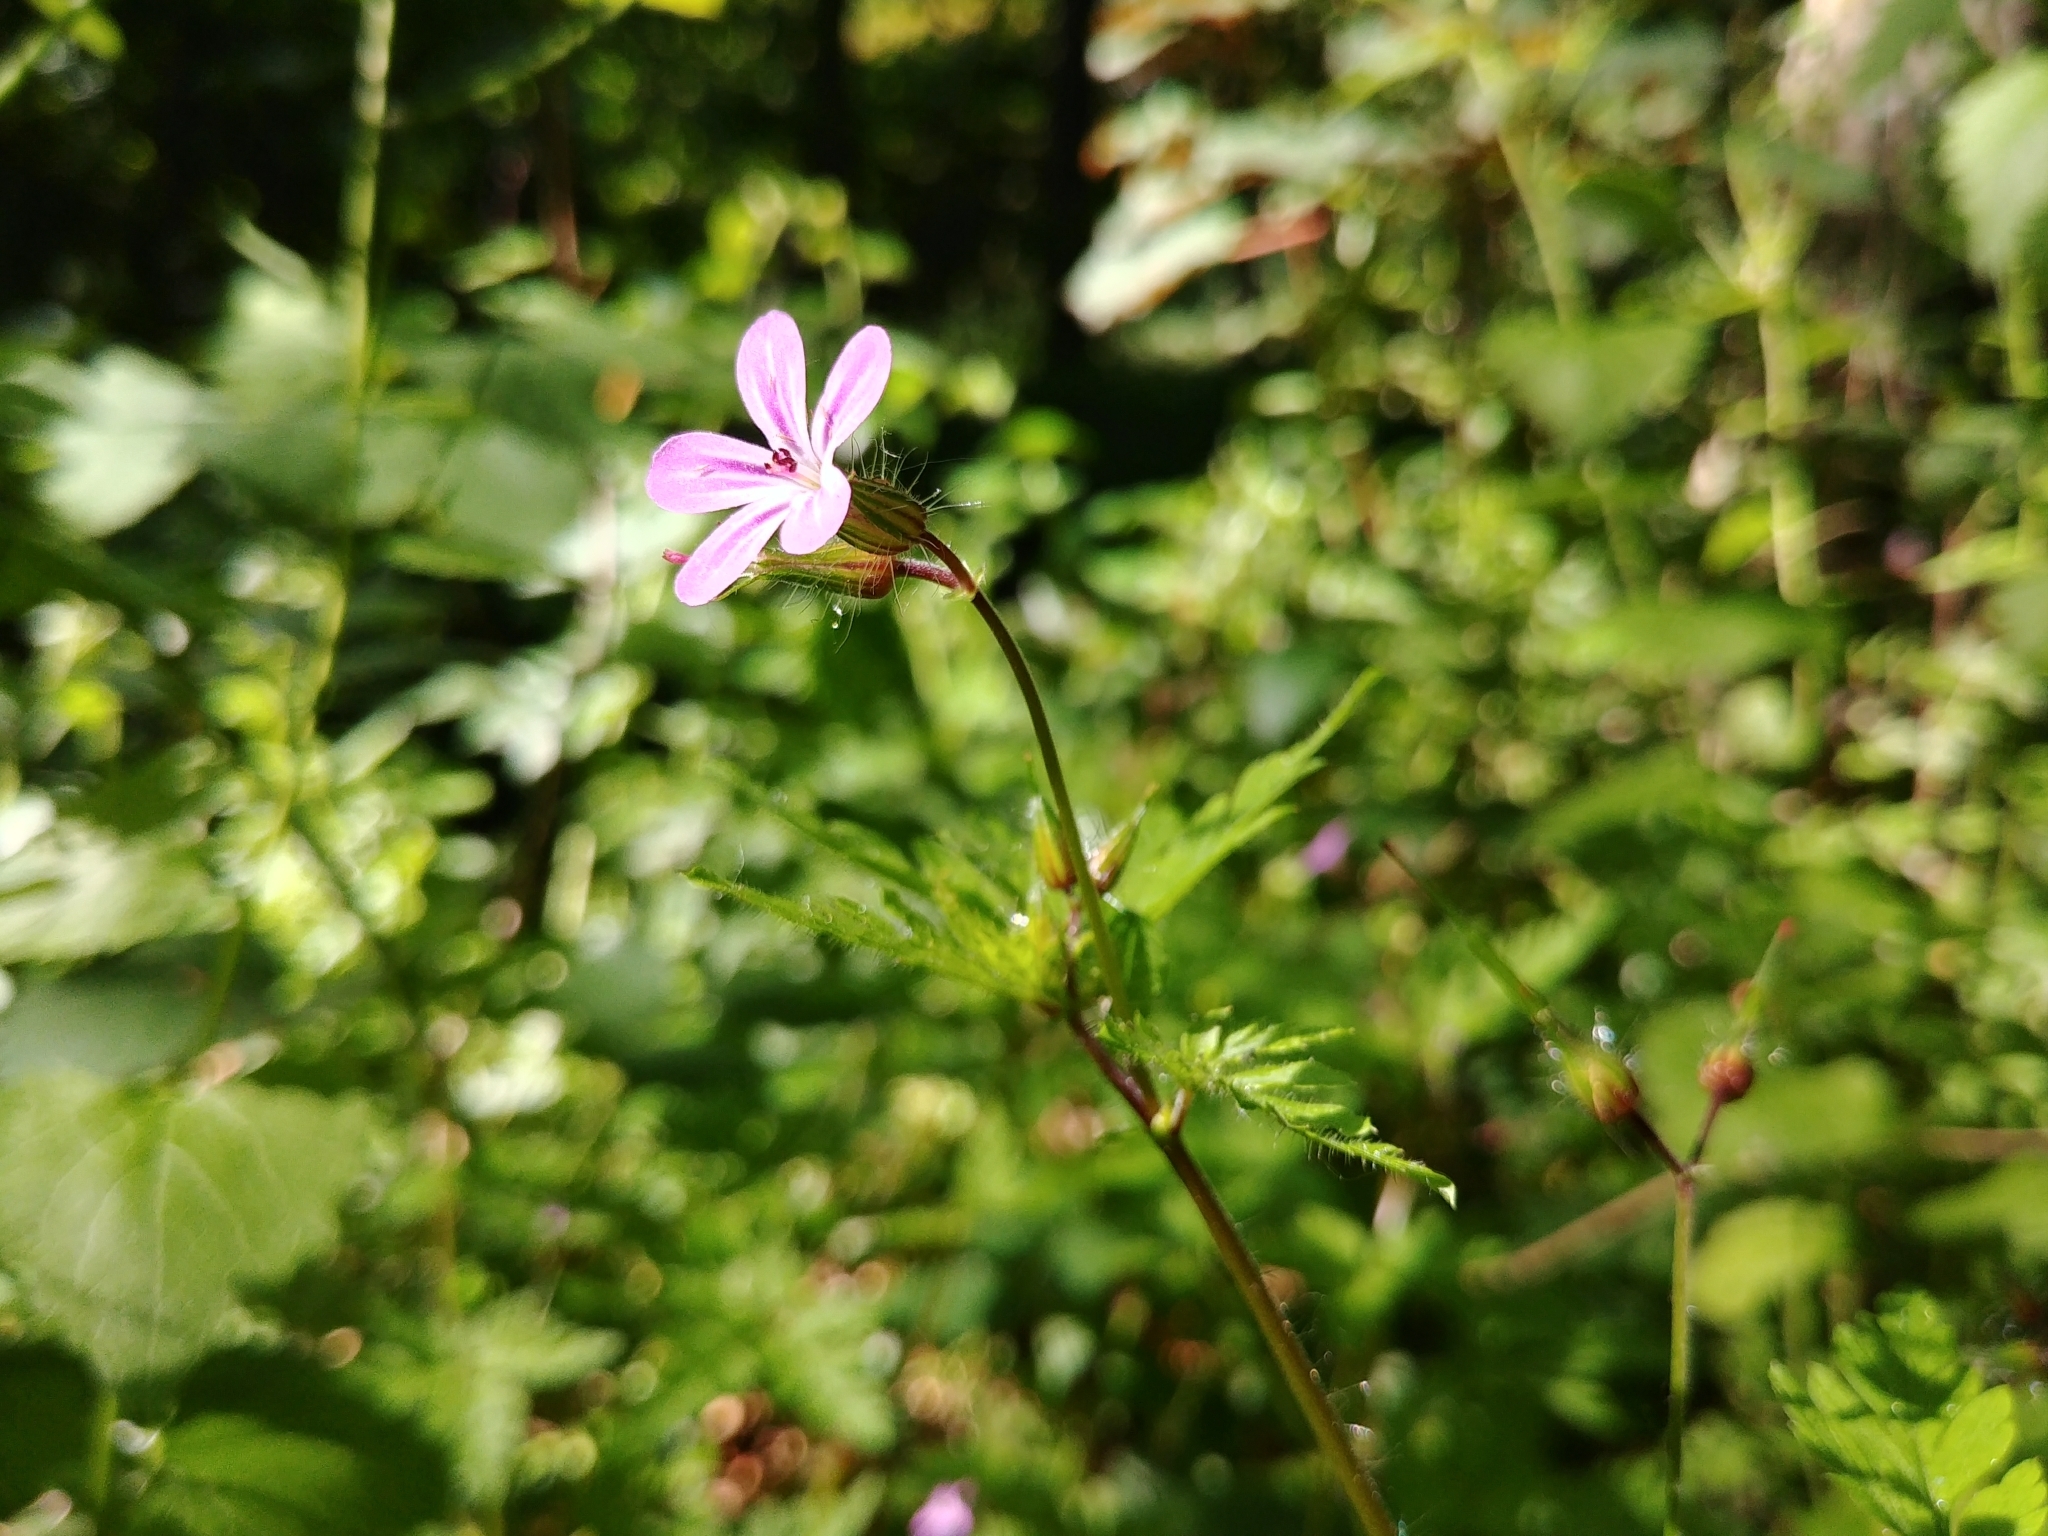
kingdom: Plantae
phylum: Tracheophyta
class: Magnoliopsida
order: Geraniales
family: Geraniaceae
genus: Geranium
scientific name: Geranium robertianum
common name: Herb-robert
